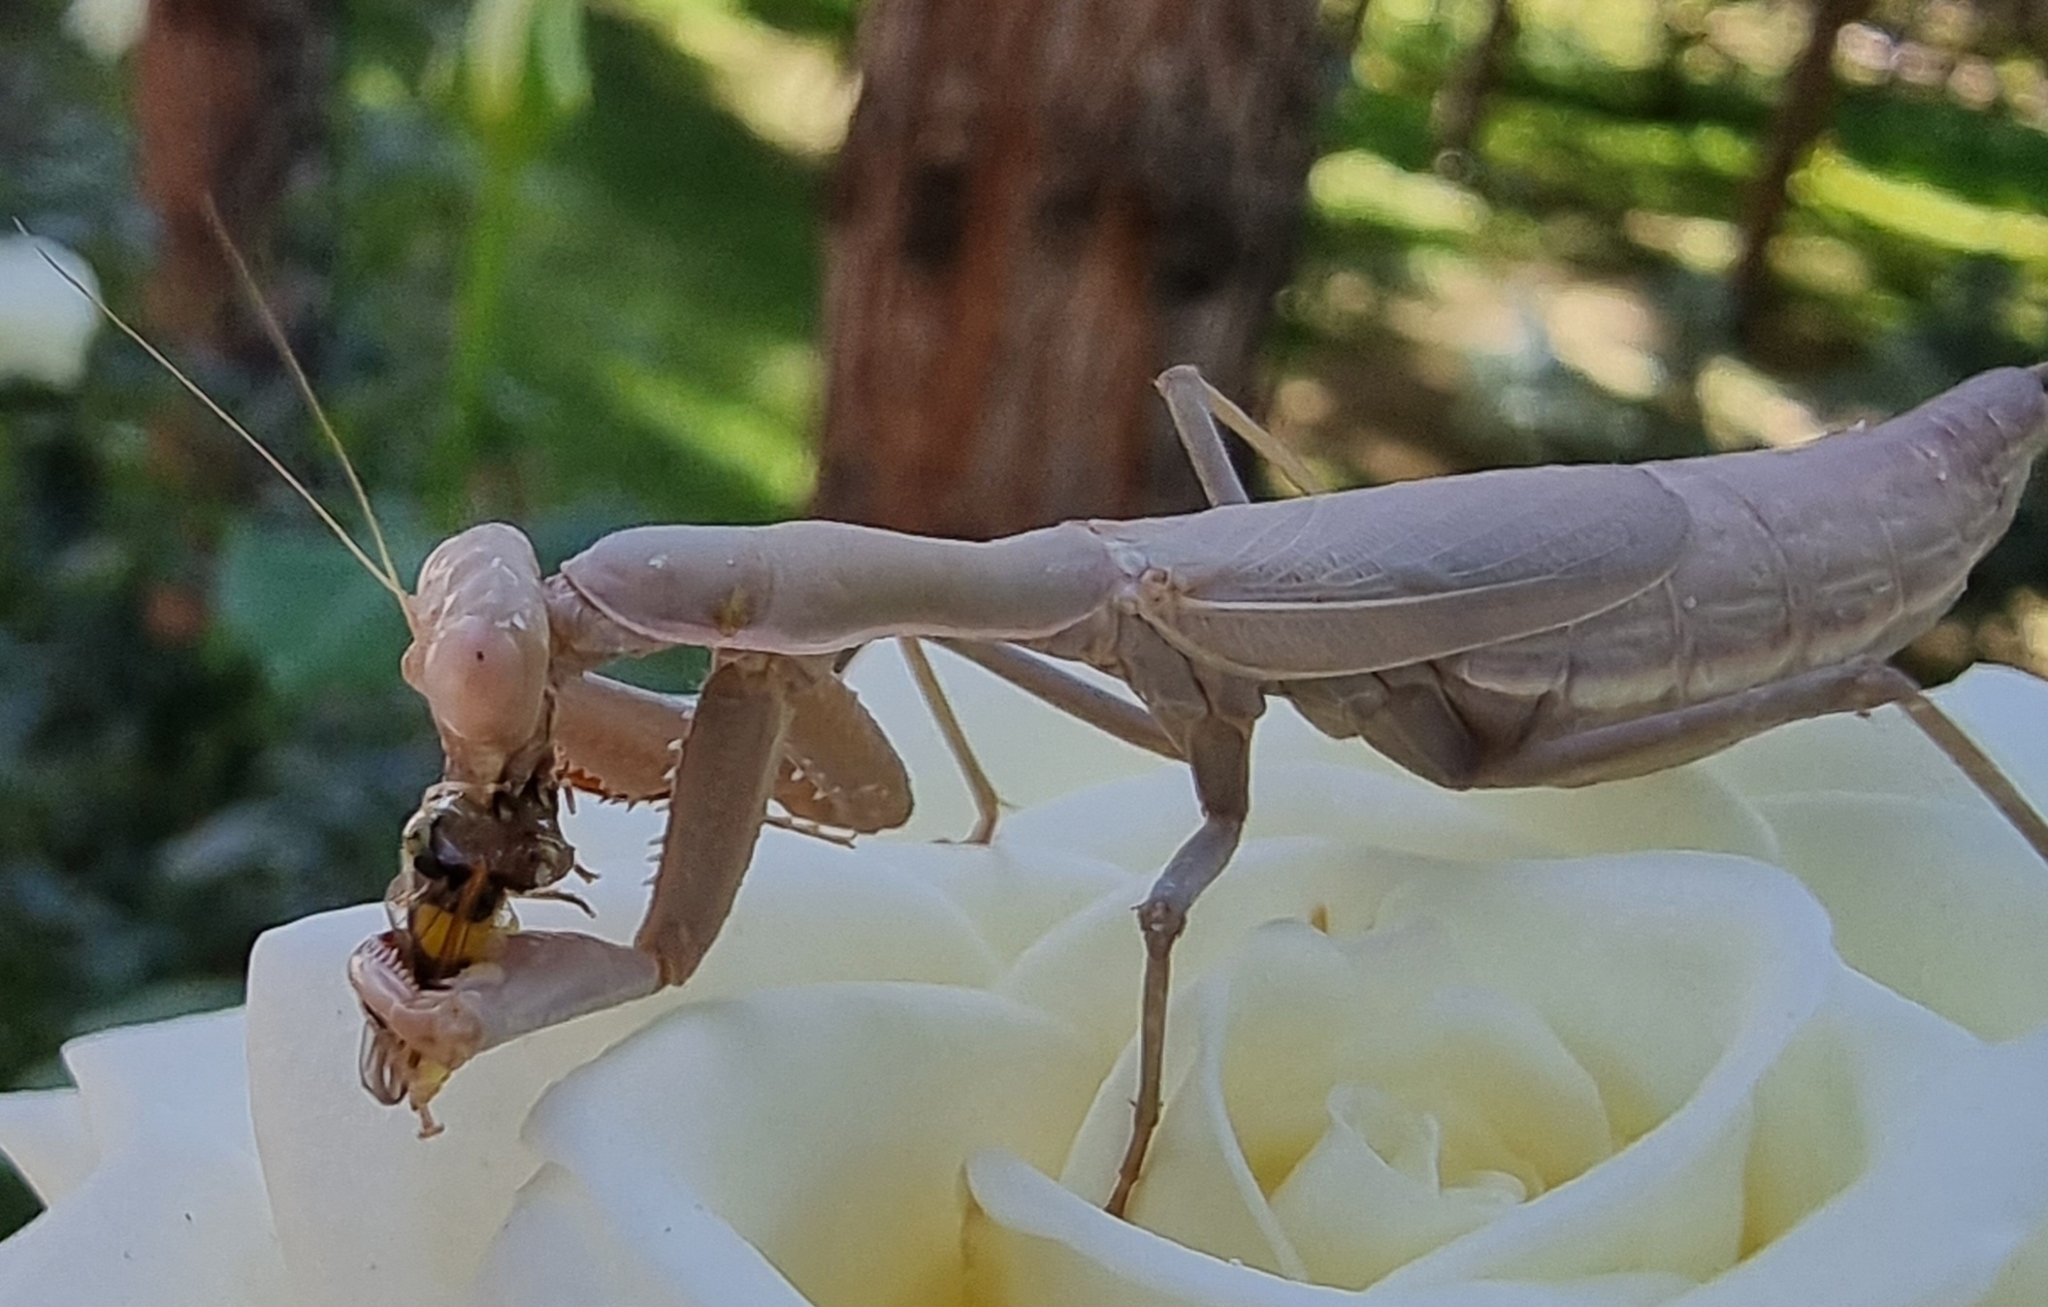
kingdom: Animalia
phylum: Arthropoda
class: Insecta
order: Mantodea
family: Eremiaphilidae
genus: Iris
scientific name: Iris polystictica
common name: Dot-winged mantis
